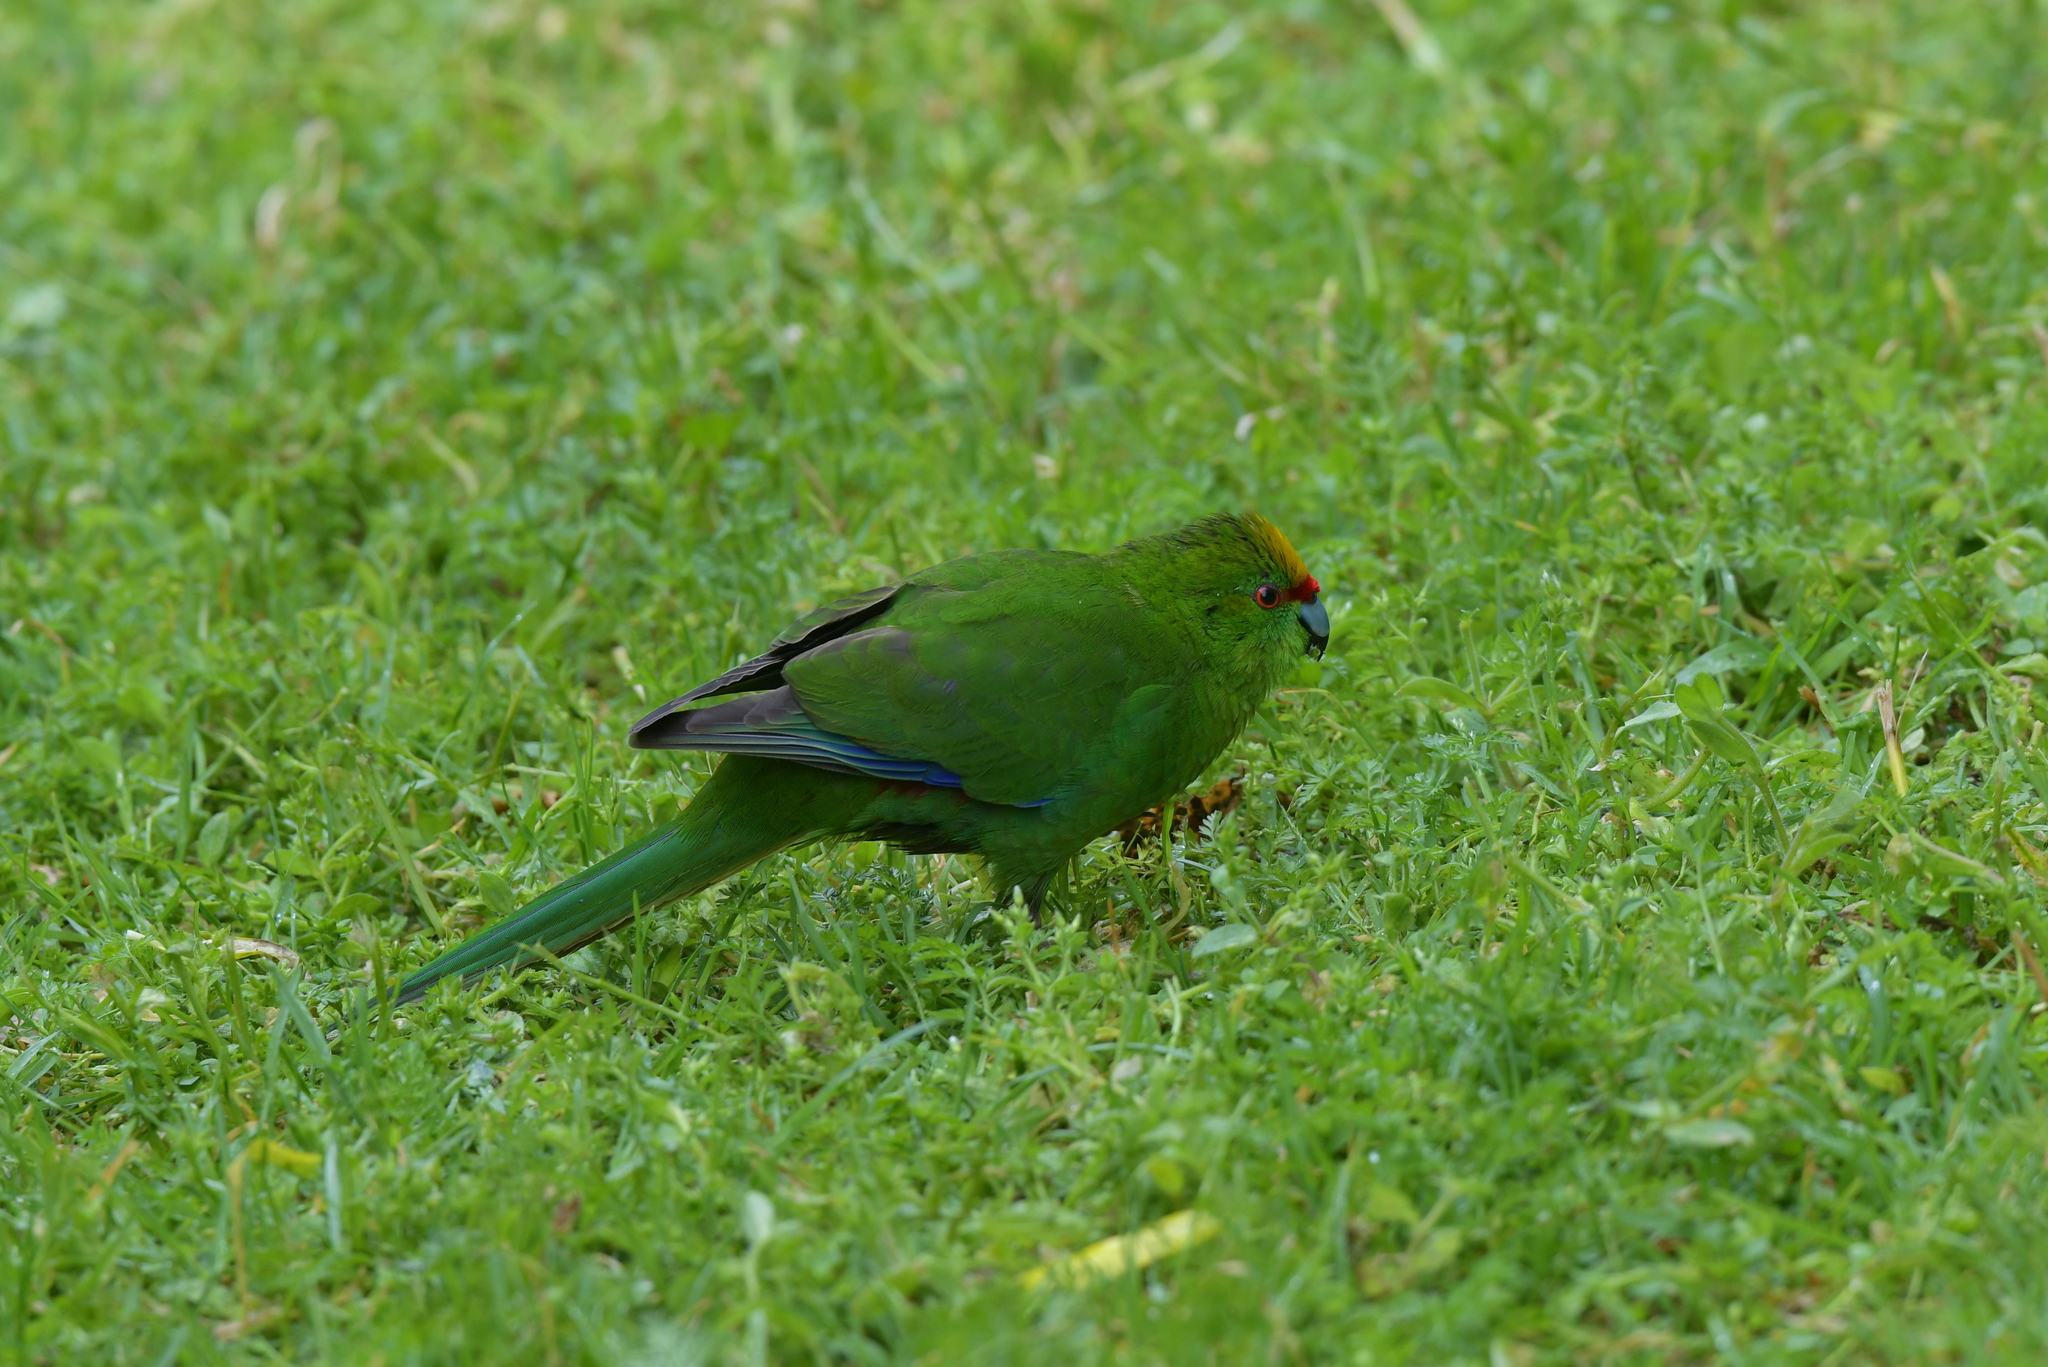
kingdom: Animalia
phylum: Chordata
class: Aves
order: Psittaciformes
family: Psittacidae
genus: Cyanoramphus
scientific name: Cyanoramphus auriceps
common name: Yellow-crowned parakeet
